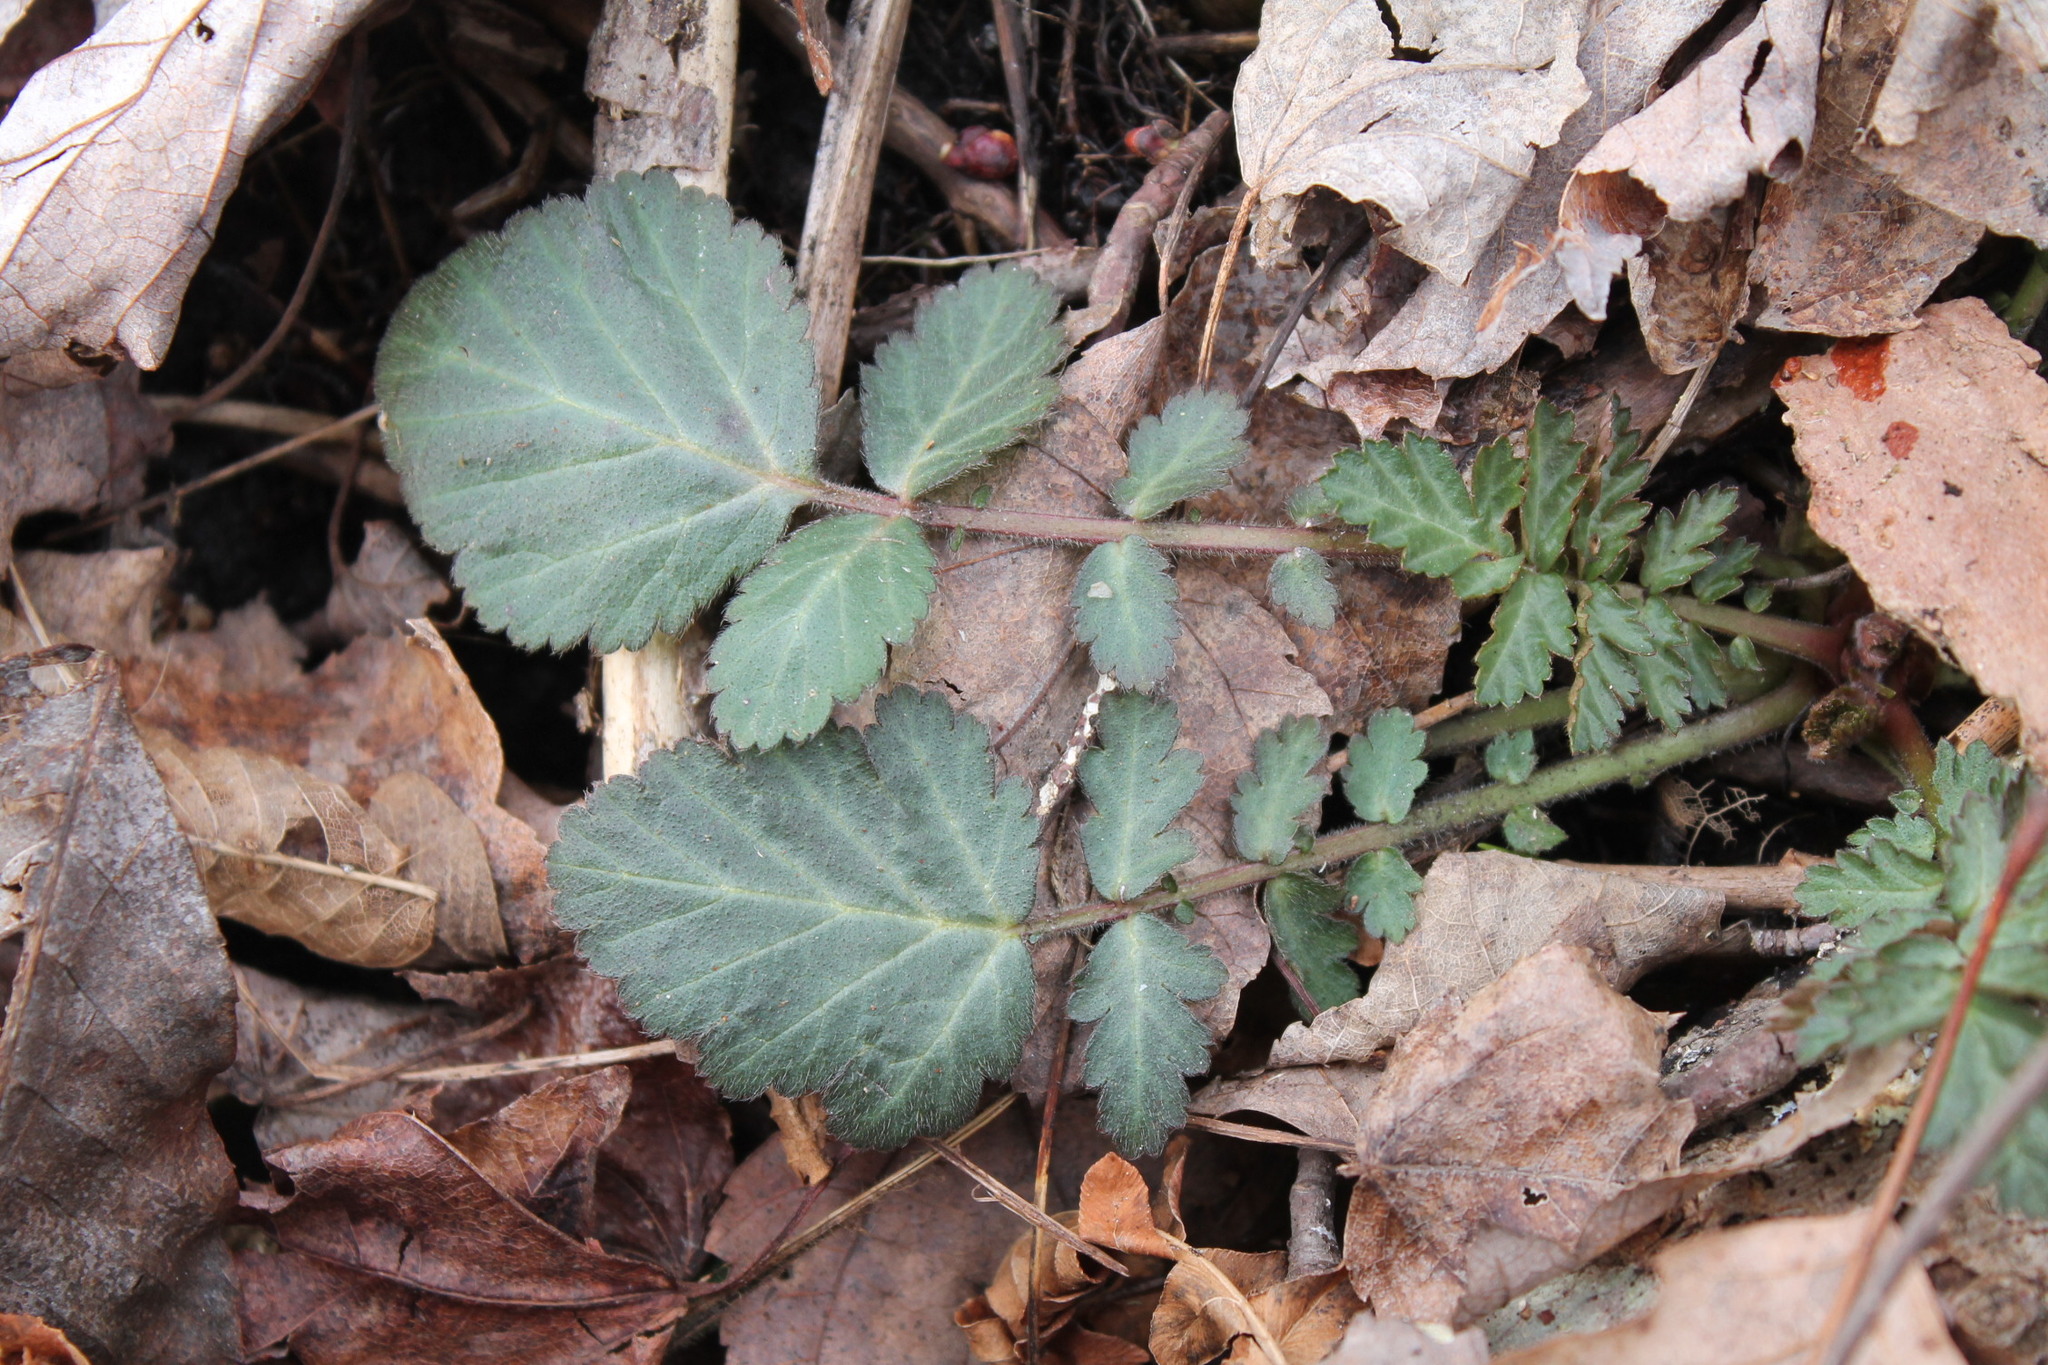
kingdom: Plantae
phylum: Tracheophyta
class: Magnoliopsida
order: Rosales
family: Rosaceae
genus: Geum
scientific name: Geum canadense
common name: White avens
